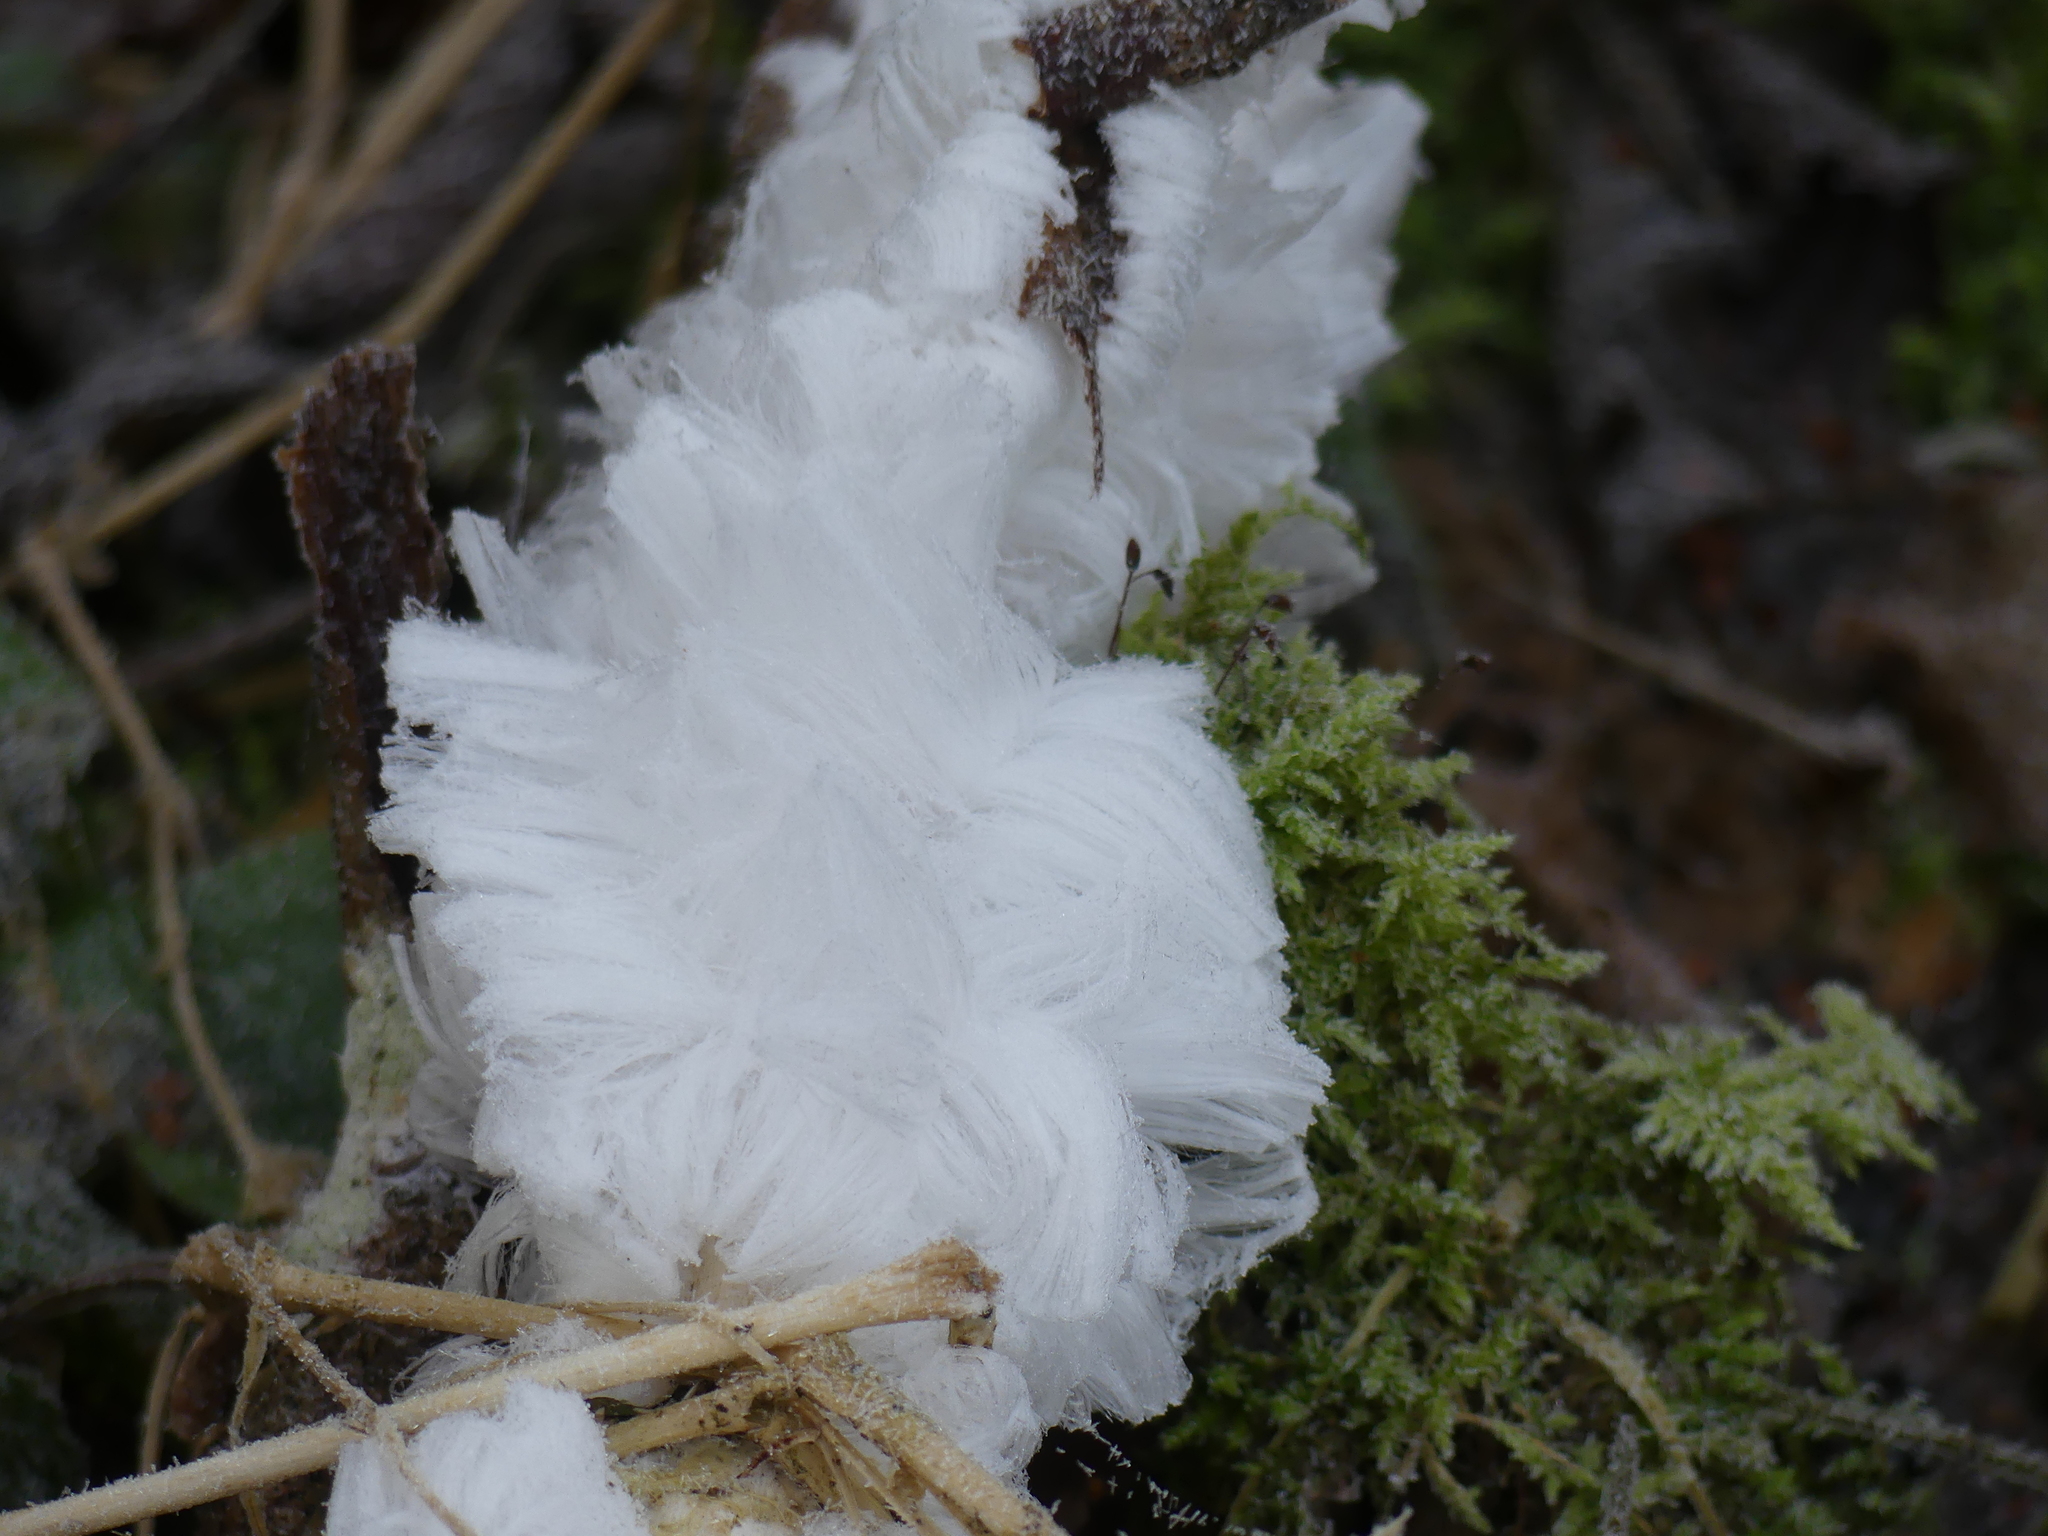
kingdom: Fungi
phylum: Basidiomycota
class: Agaricomycetes
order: Auriculariales
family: Auriculariaceae
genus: Exidiopsis
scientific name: Exidiopsis effusa
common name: Hair ice crust
